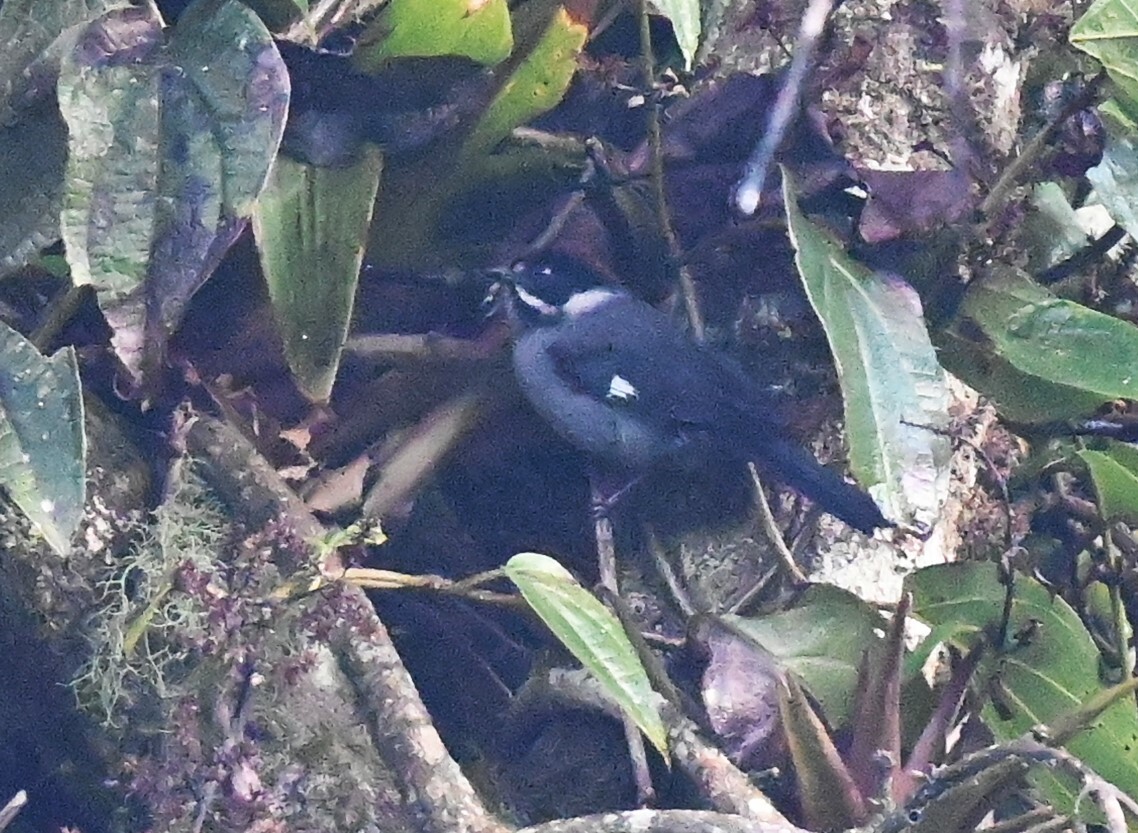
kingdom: Animalia
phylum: Chordata
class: Aves
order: Passeriformes
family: Passerellidae
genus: Atlapetes
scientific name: Atlapetes schistaceus
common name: Slaty brushfinch
